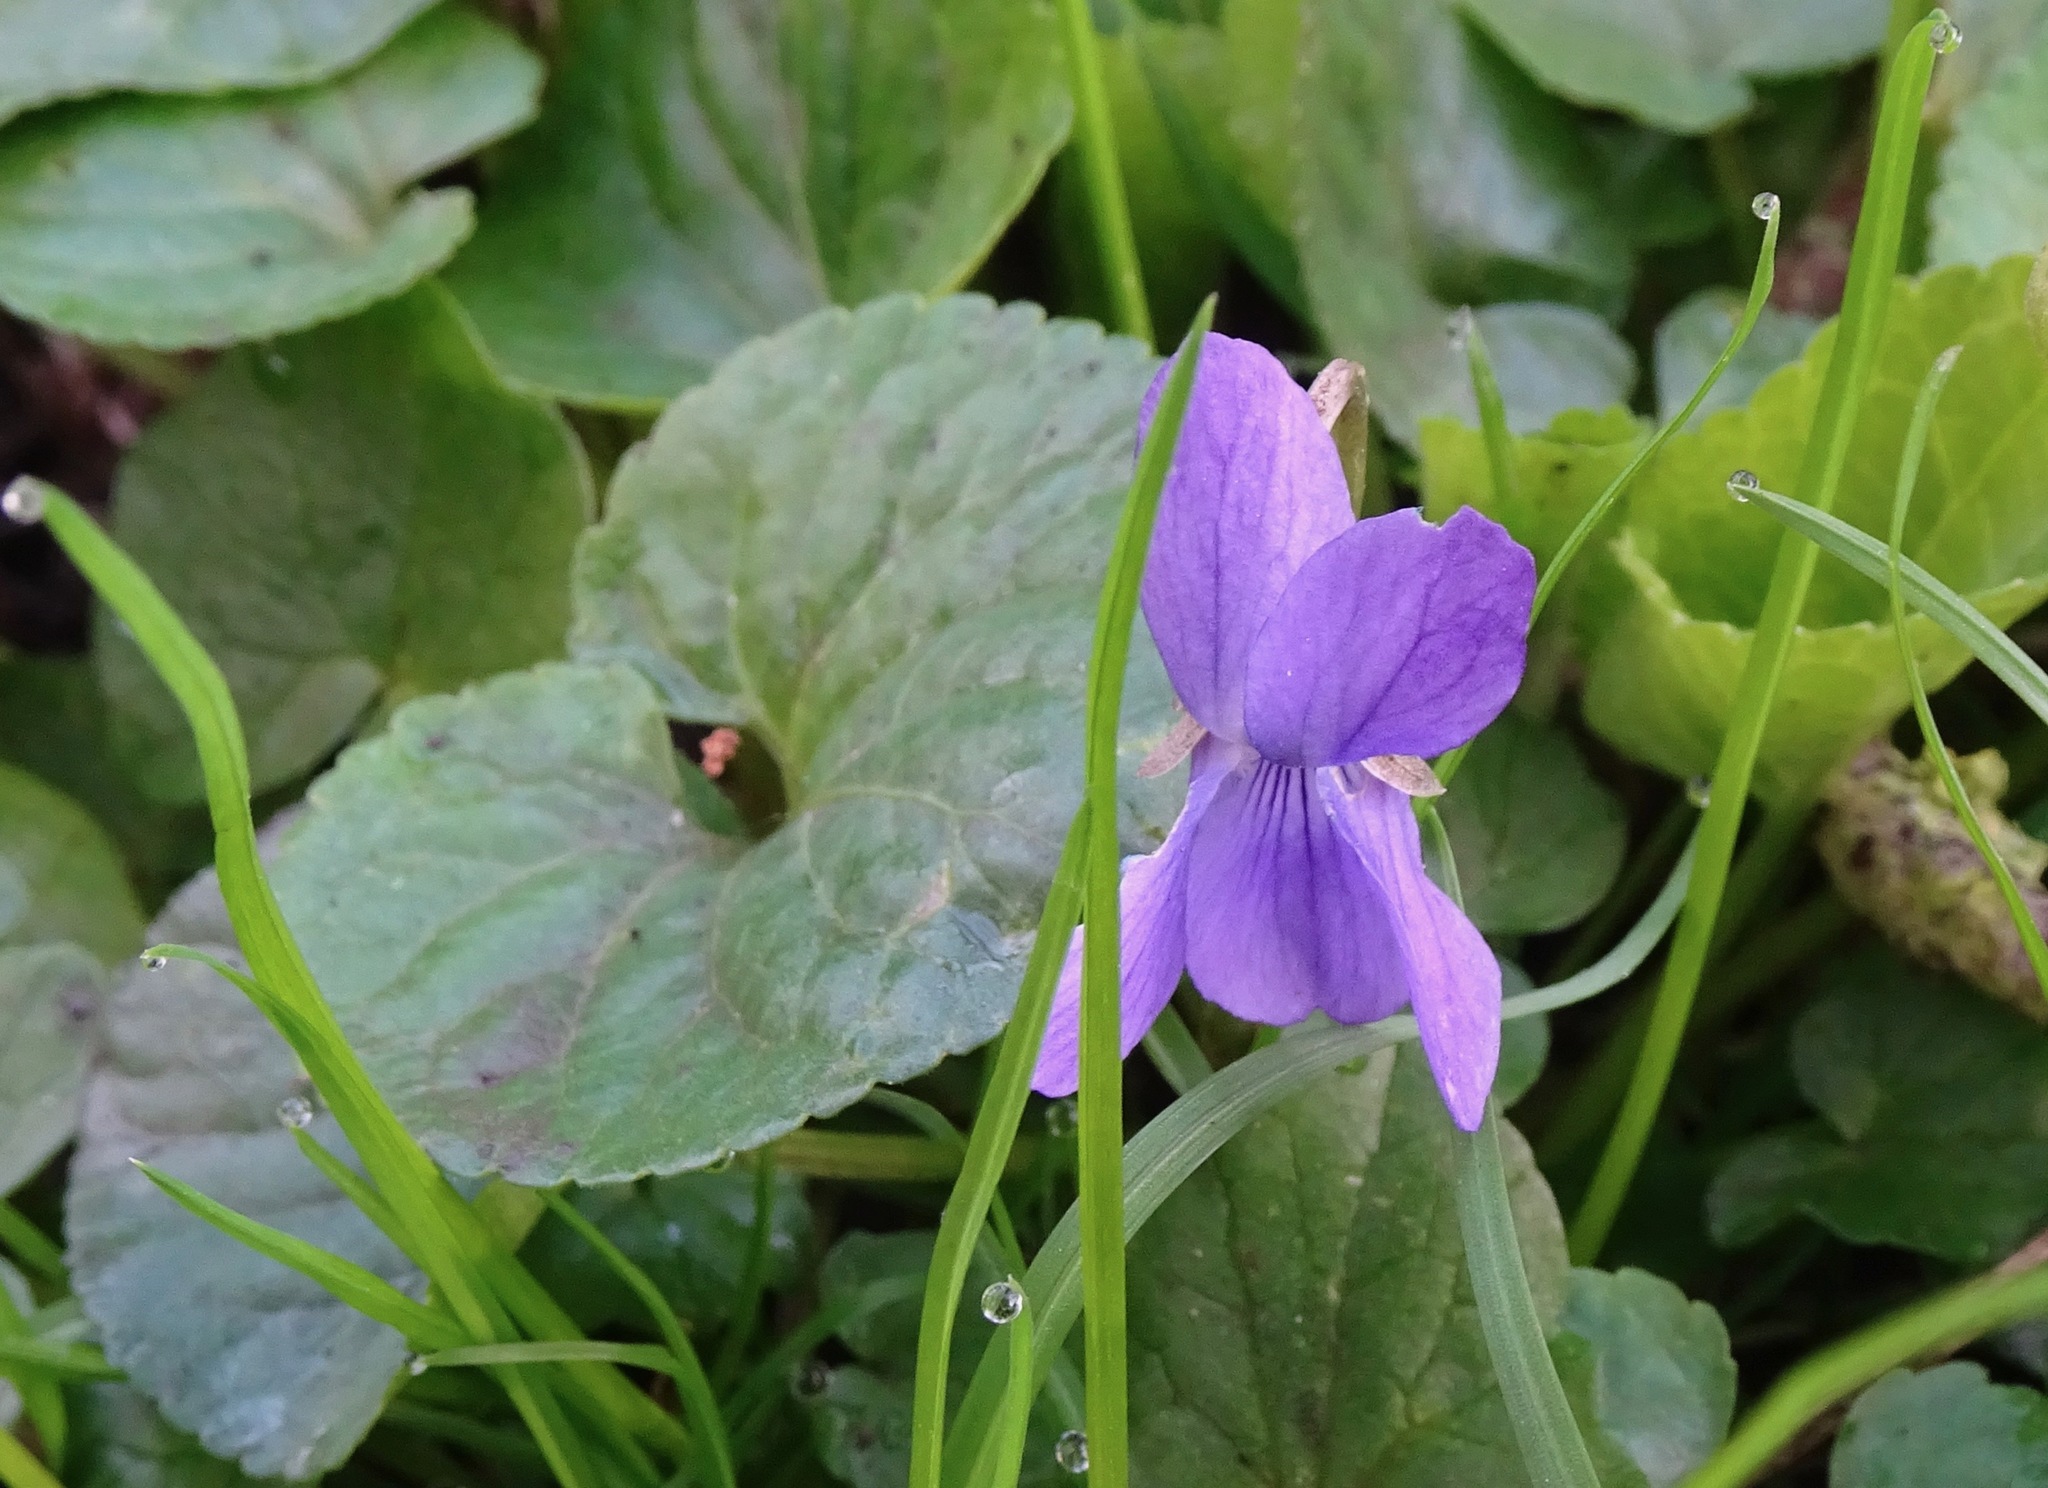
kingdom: Plantae
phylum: Tracheophyta
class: Magnoliopsida
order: Malpighiales
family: Violaceae
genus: Viola
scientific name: Viola odorata
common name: Sweet violet
